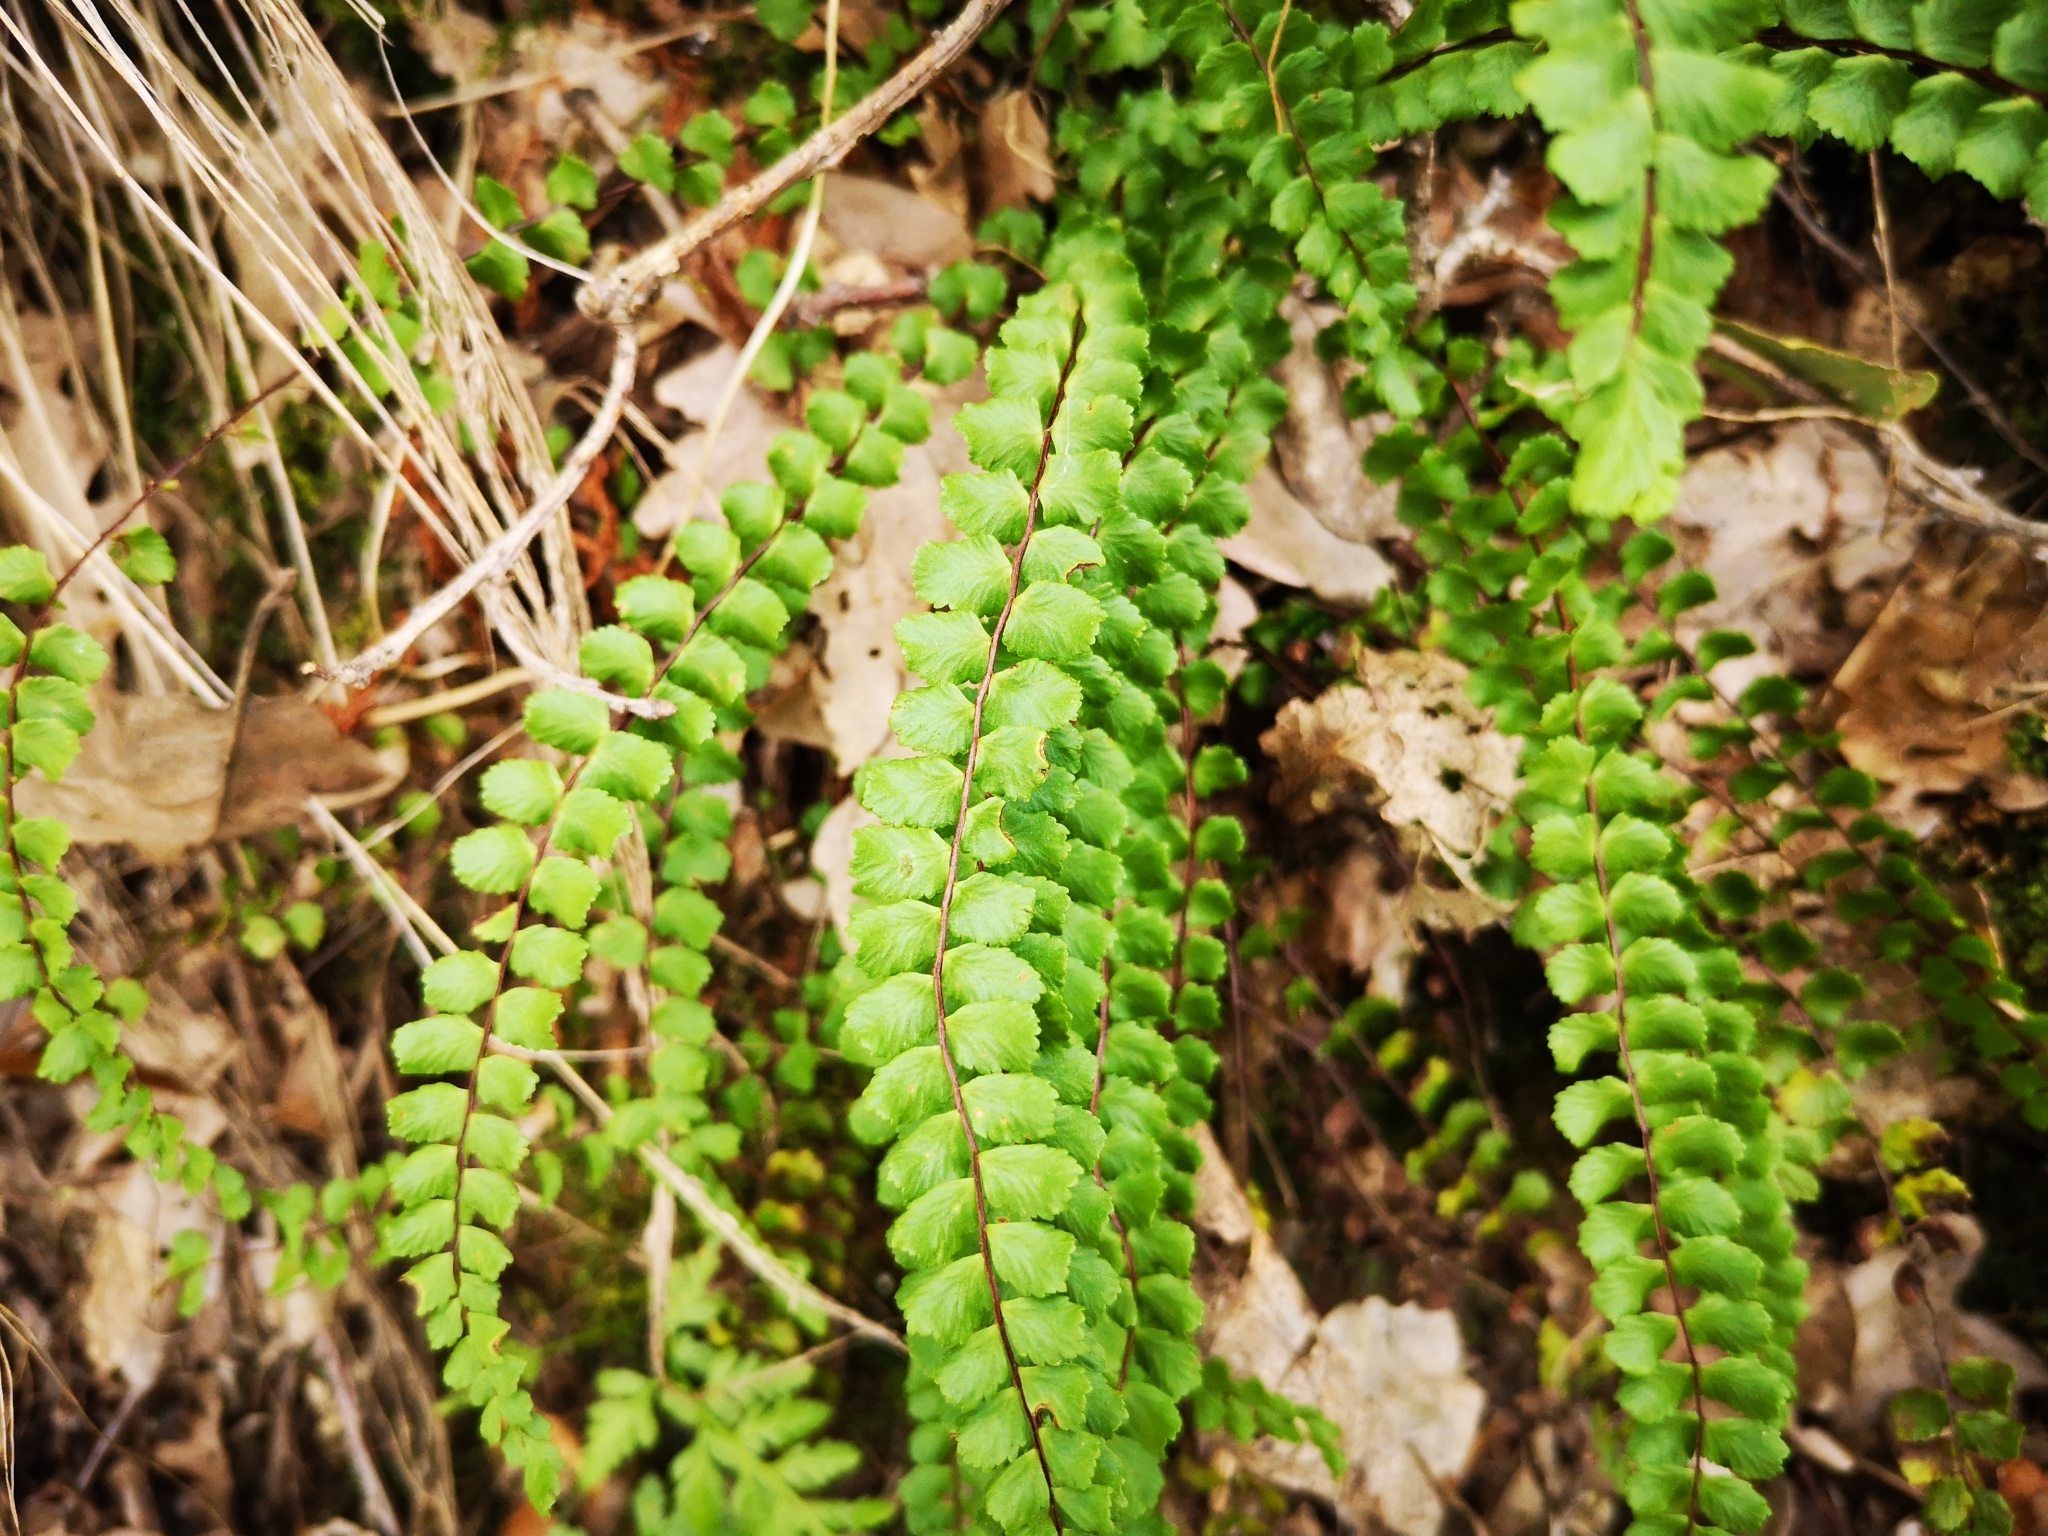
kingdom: Plantae
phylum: Tracheophyta
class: Polypodiopsida
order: Polypodiales
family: Aspleniaceae
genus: Asplenium
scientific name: Asplenium trichomanes
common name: Maidenhair spleenwort
